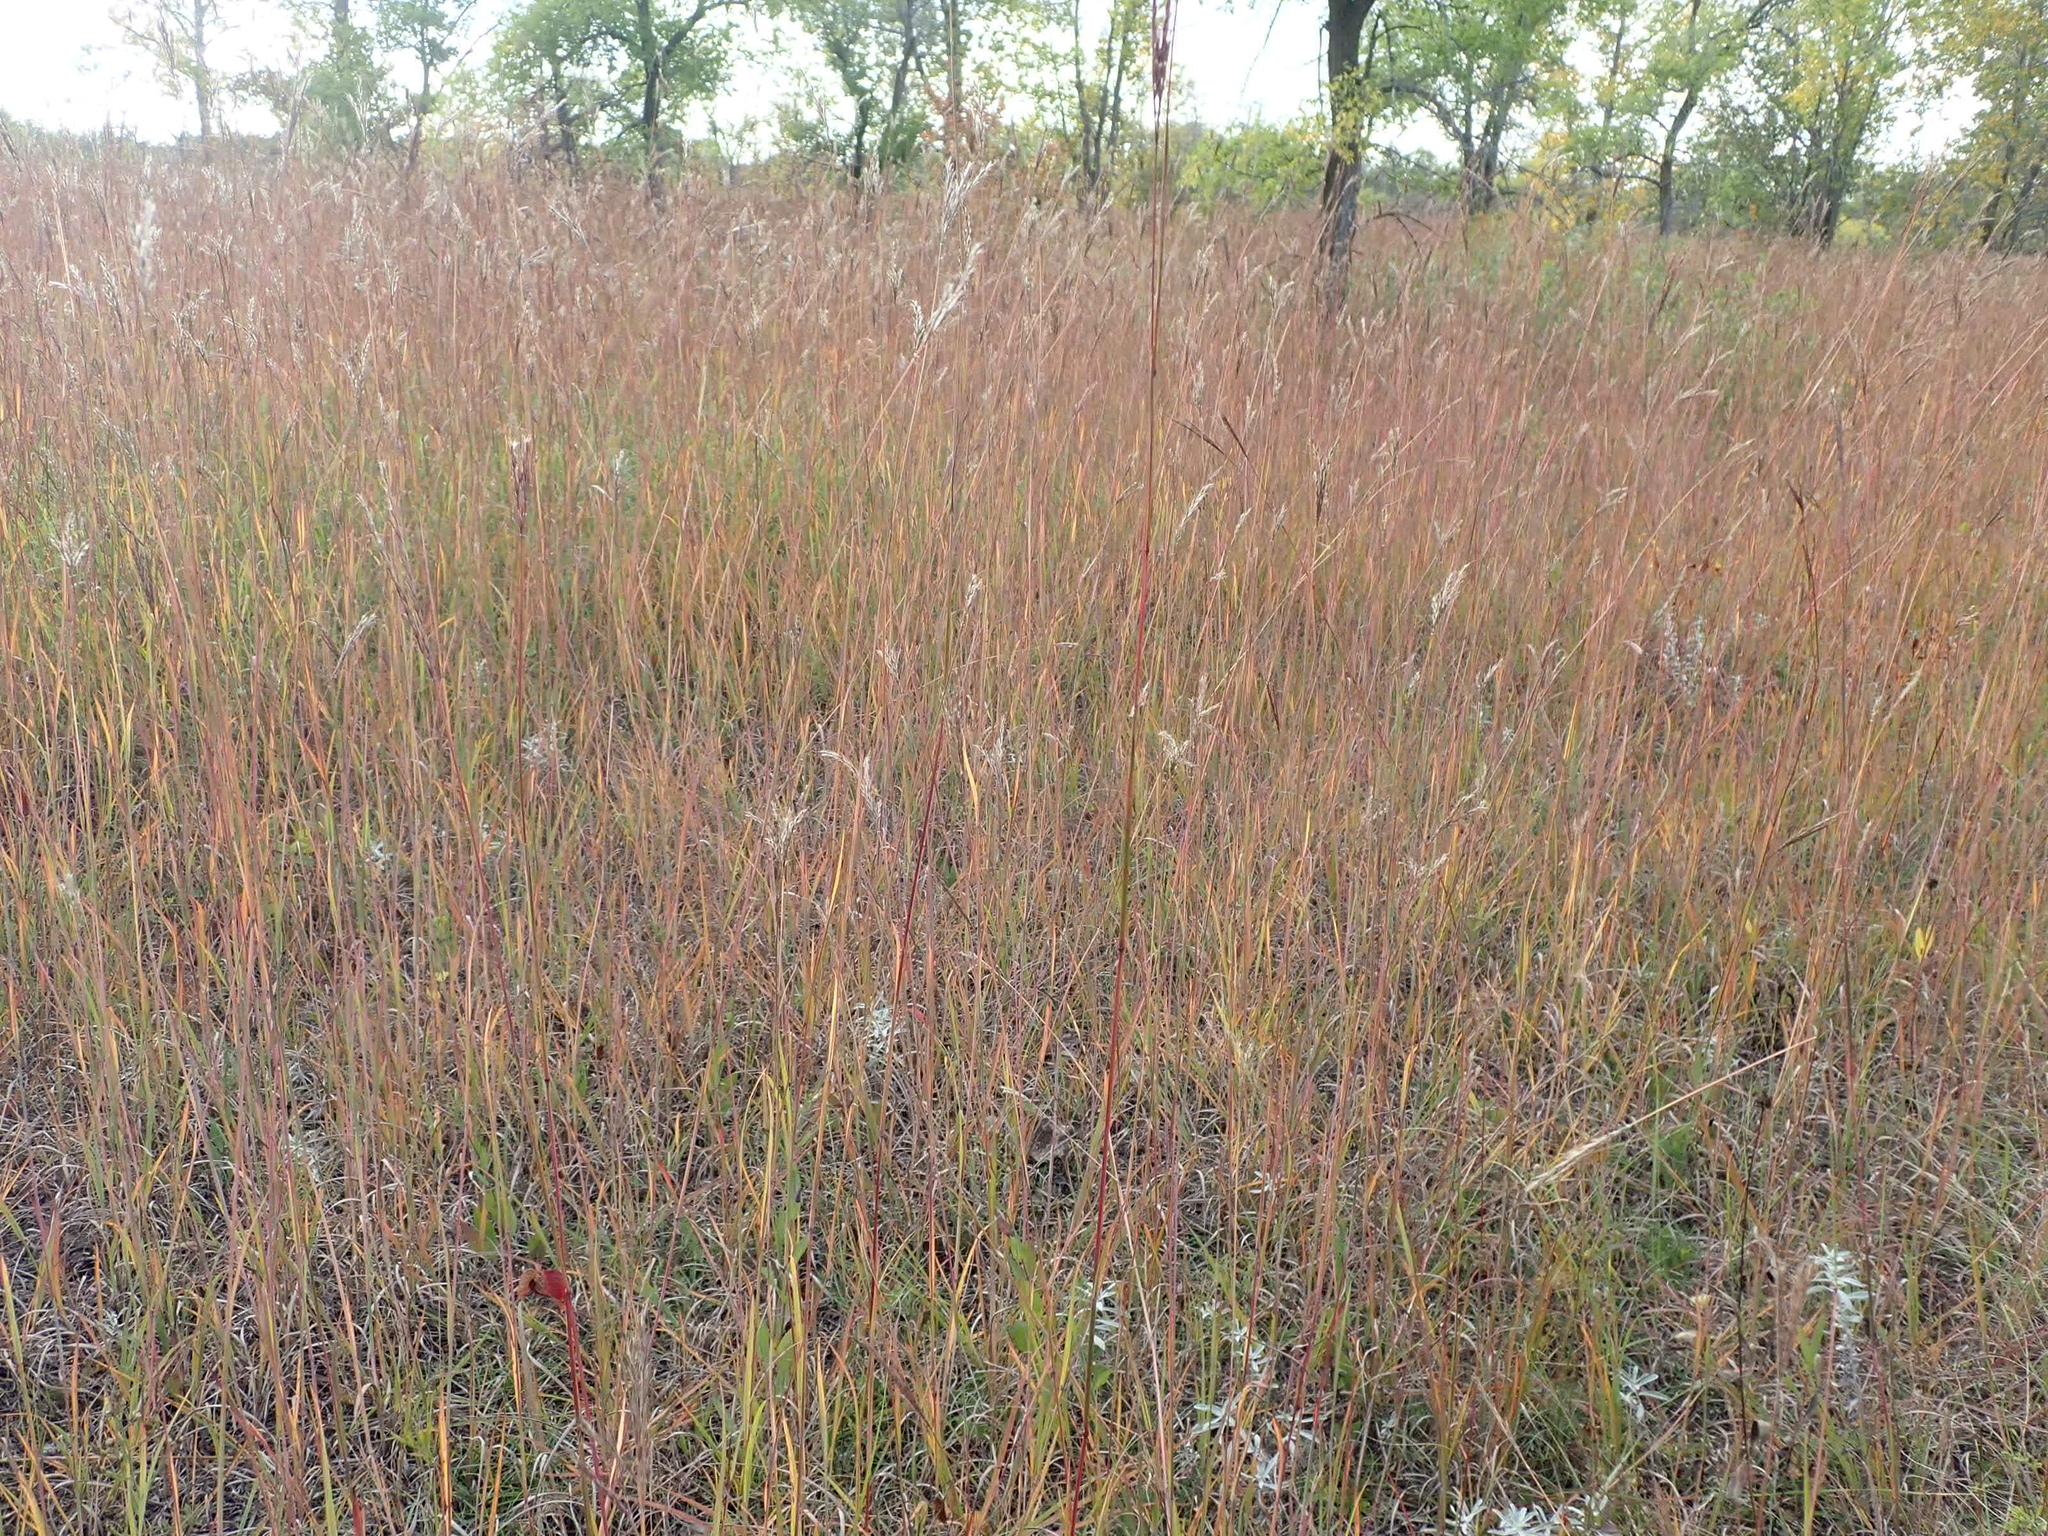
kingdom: Plantae
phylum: Tracheophyta
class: Liliopsida
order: Poales
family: Poaceae
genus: Andropogon
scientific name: Andropogon gerardi
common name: Big bluestem
